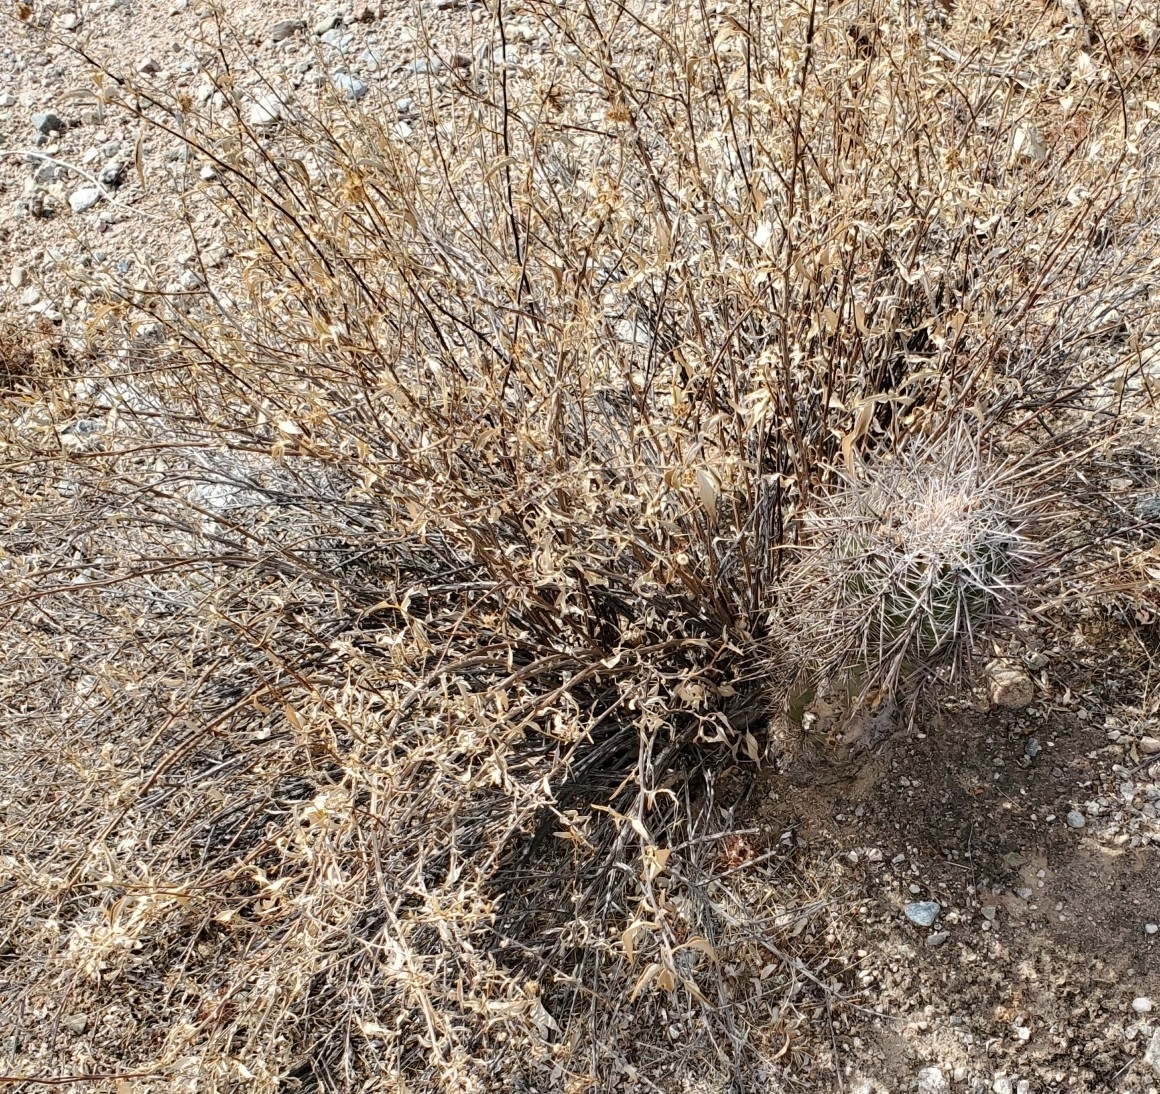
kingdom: Plantae
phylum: Tracheophyta
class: Magnoliopsida
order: Asterales
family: Asteraceae
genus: Ambrosia
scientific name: Ambrosia deltoidea
